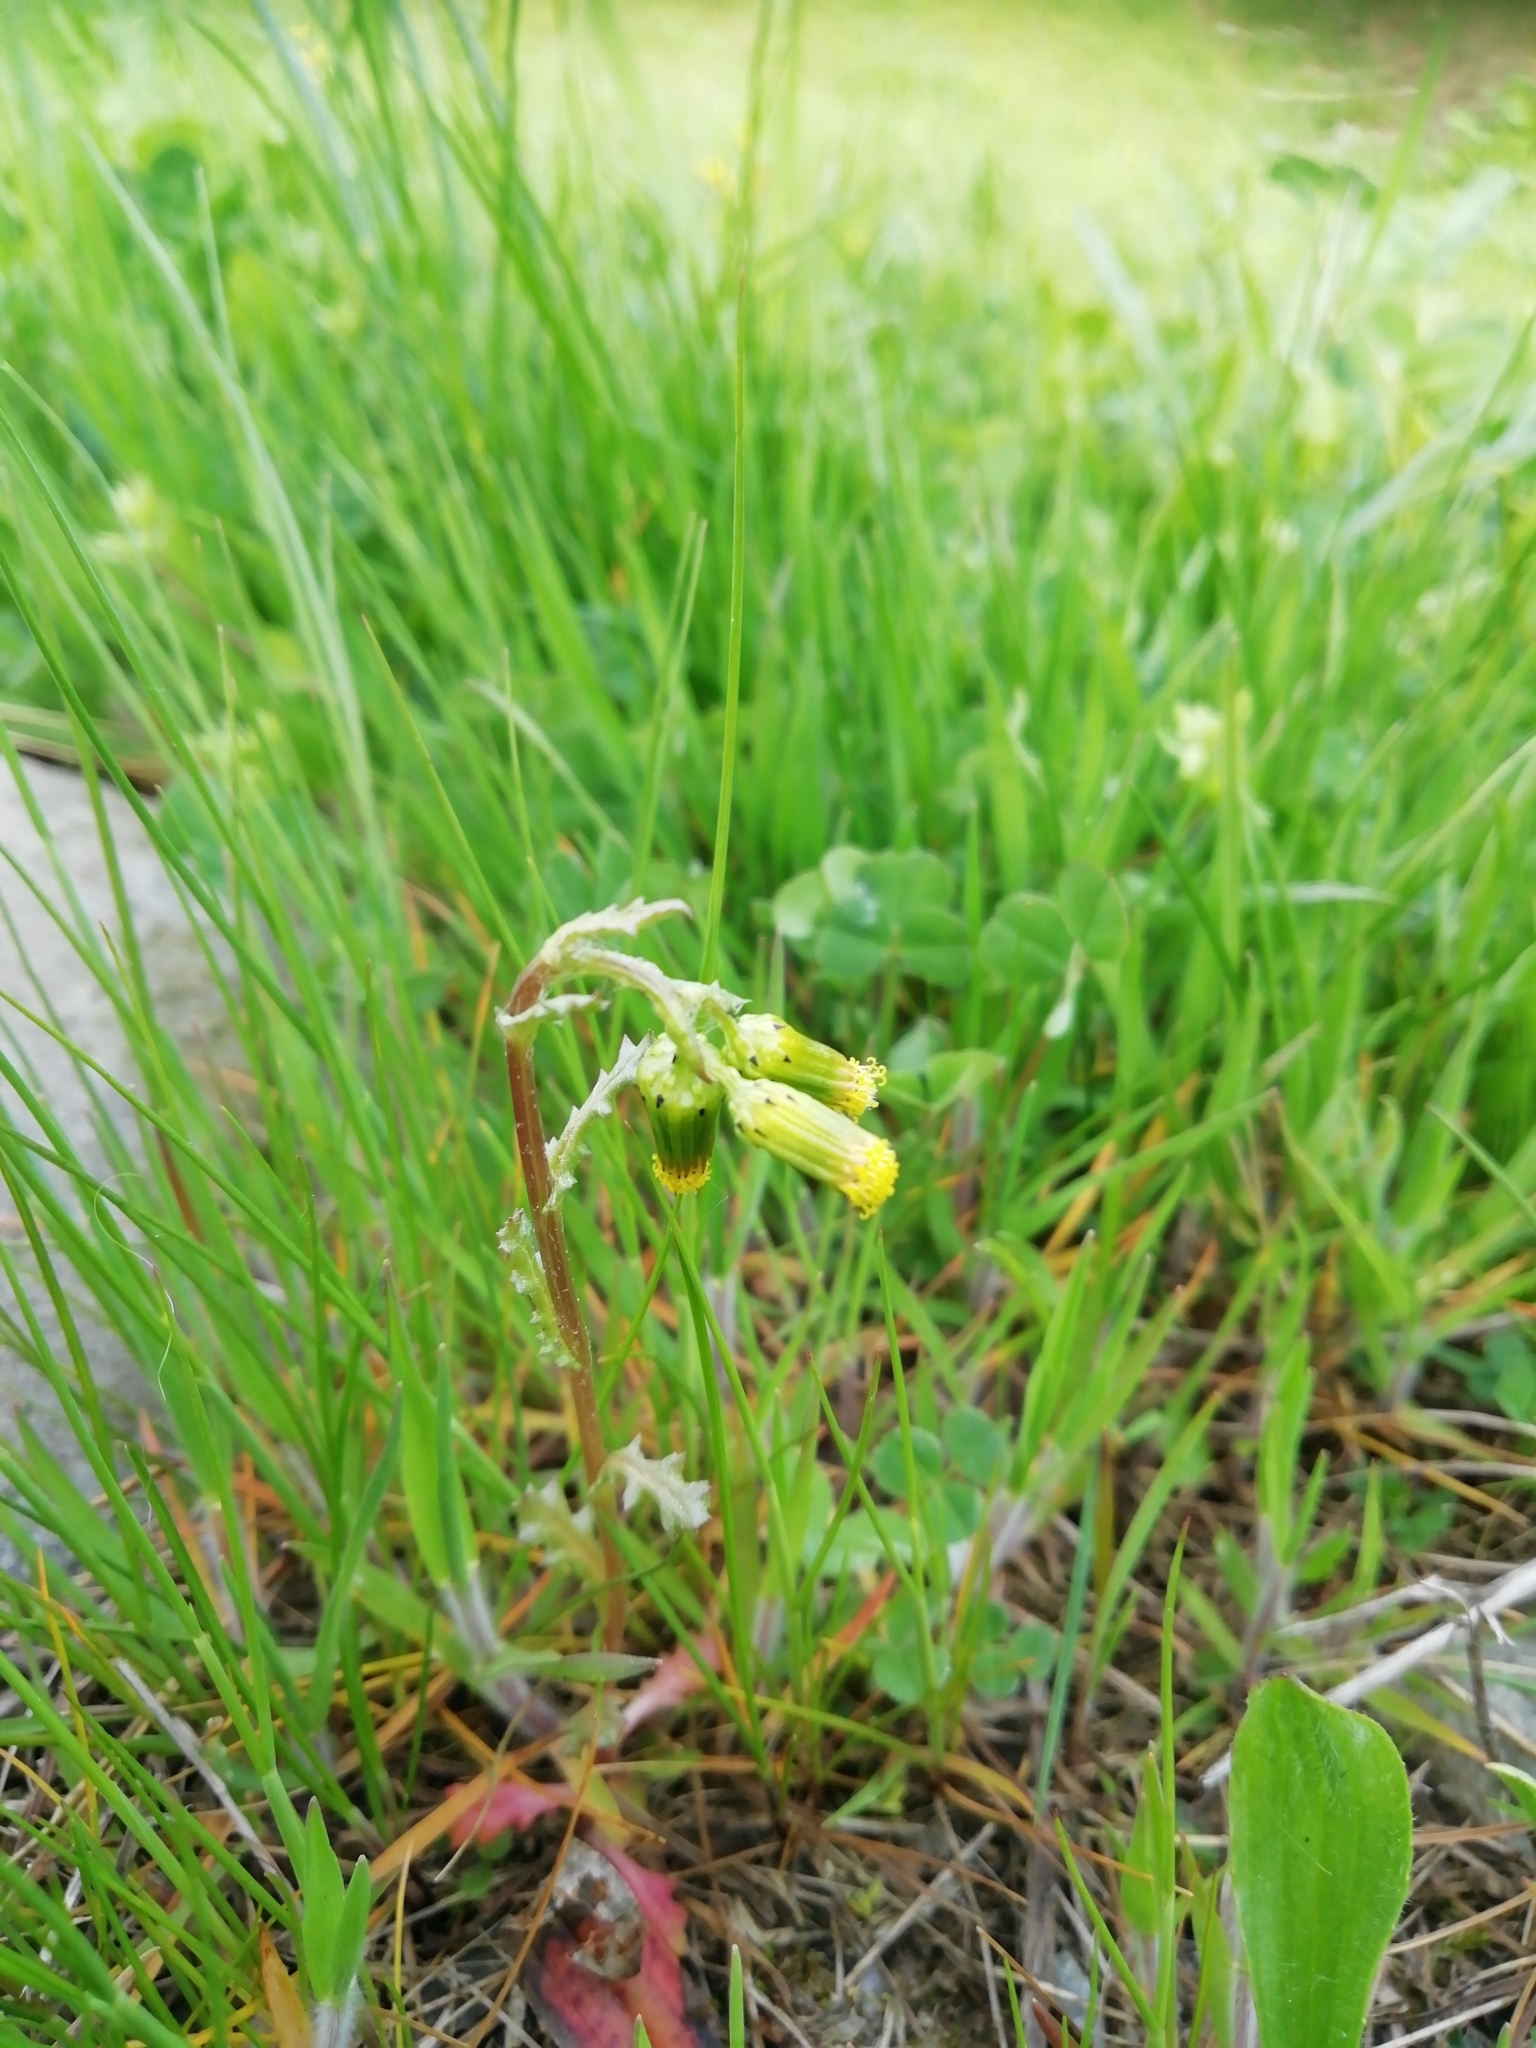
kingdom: Plantae
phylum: Tracheophyta
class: Magnoliopsida
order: Asterales
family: Asteraceae
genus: Senecio
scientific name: Senecio vulgaris
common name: Old-man-in-the-spring
